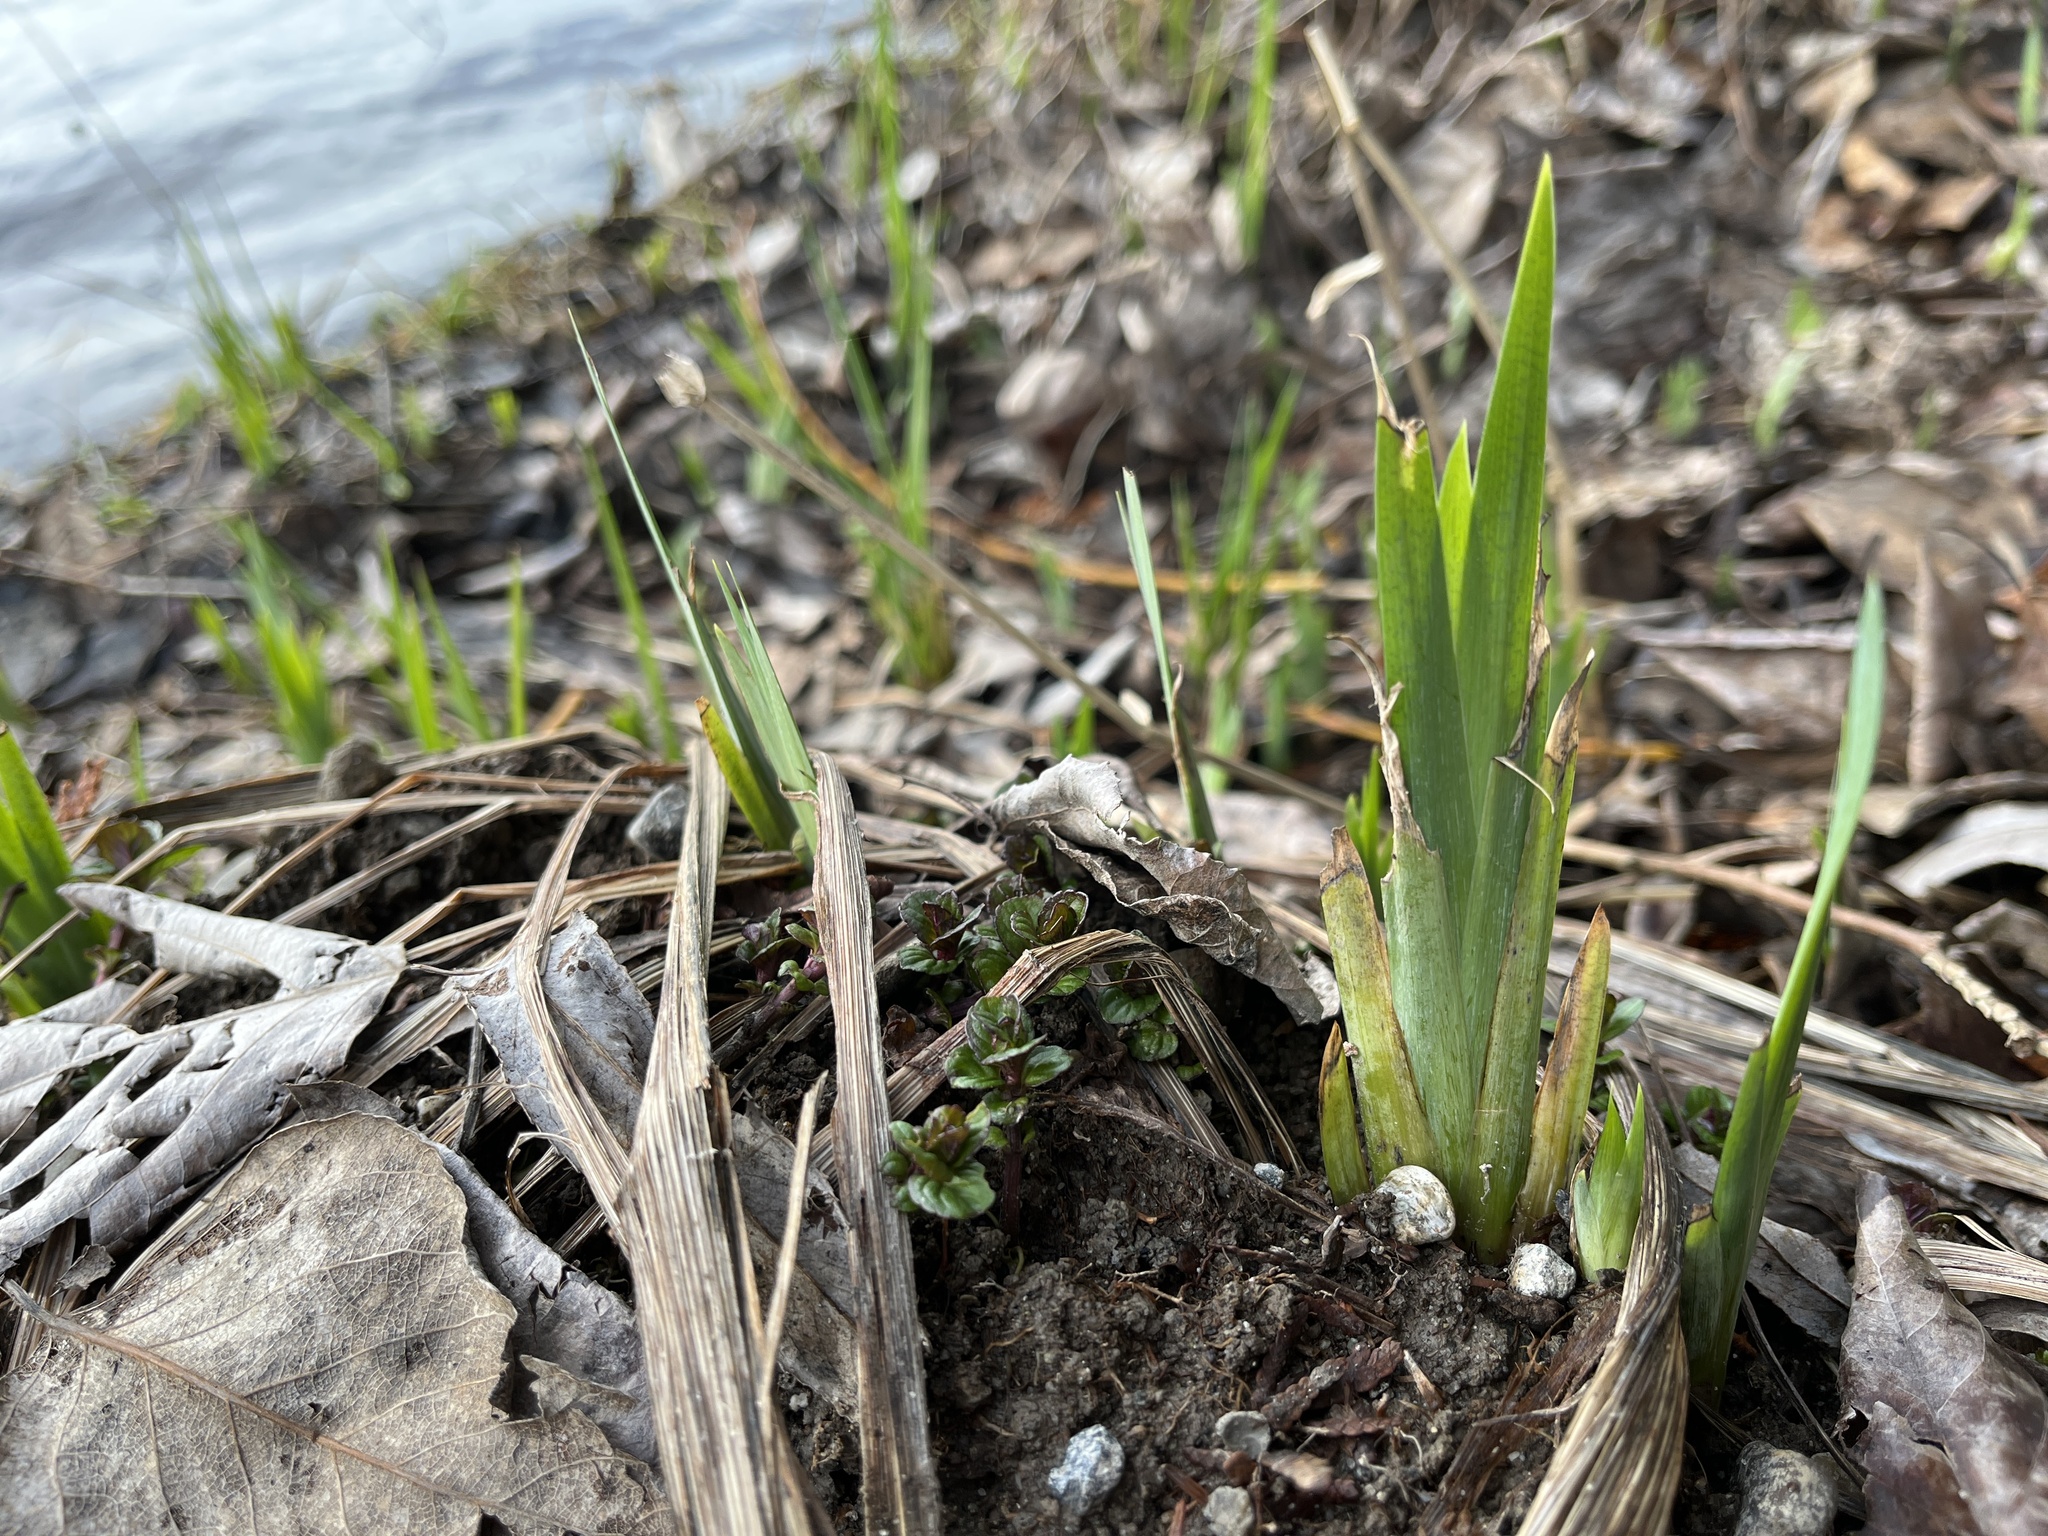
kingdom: Plantae
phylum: Tracheophyta
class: Liliopsida
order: Asparagales
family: Iridaceae
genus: Iris
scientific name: Iris pseudacorus
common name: Yellow flag
